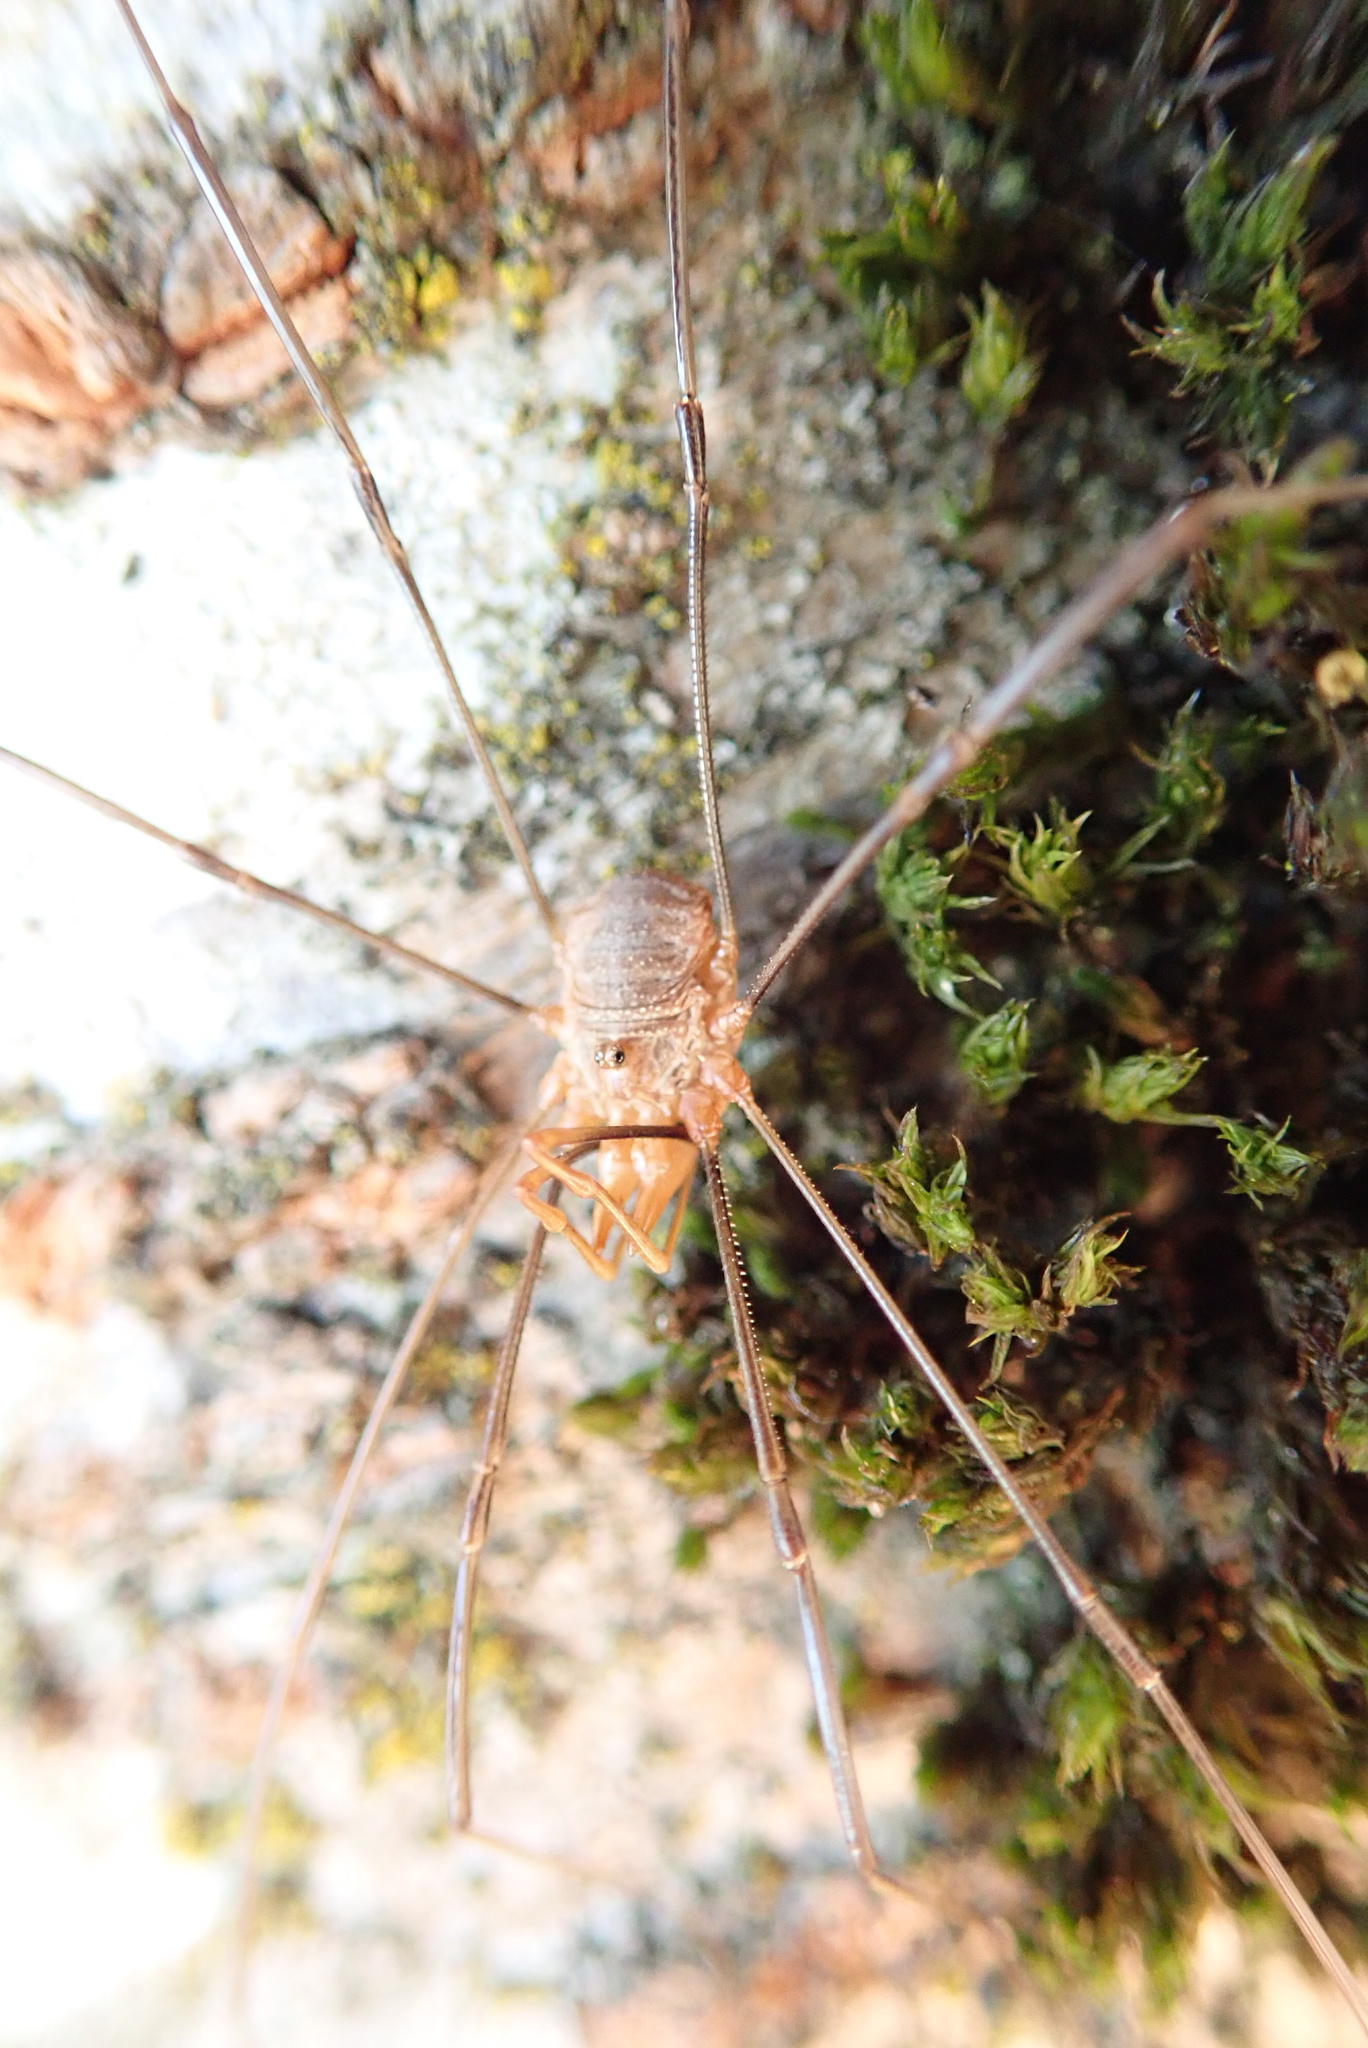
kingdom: Animalia
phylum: Arthropoda
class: Arachnida
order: Opiliones
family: Phalangiidae
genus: Phalangium
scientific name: Phalangium opilio
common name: Daddy longleg
